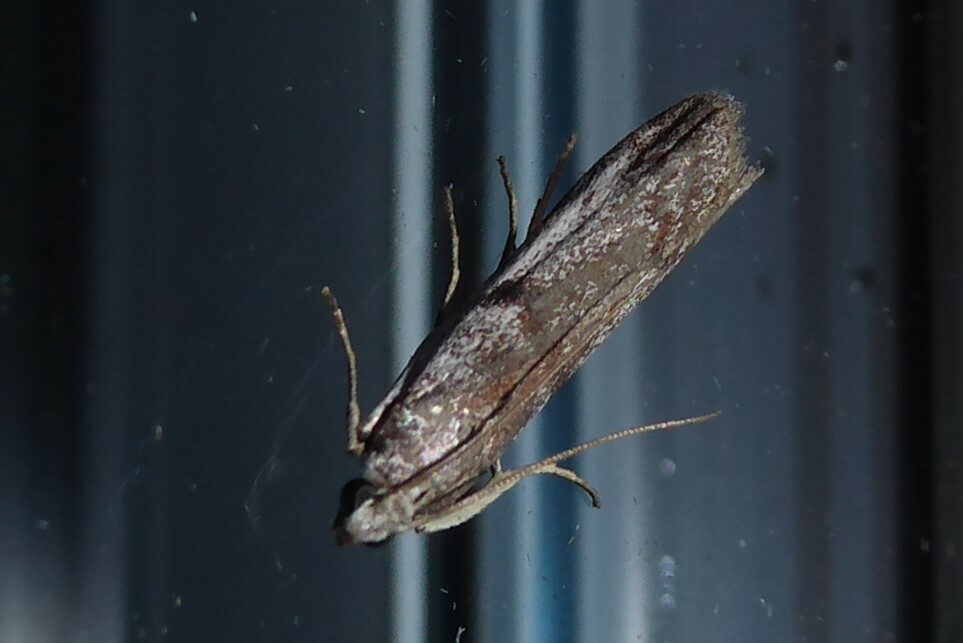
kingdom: Animalia
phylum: Arthropoda
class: Insecta
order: Lepidoptera
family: Pyralidae
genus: Patagoniodes
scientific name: Patagoniodes farinaria
